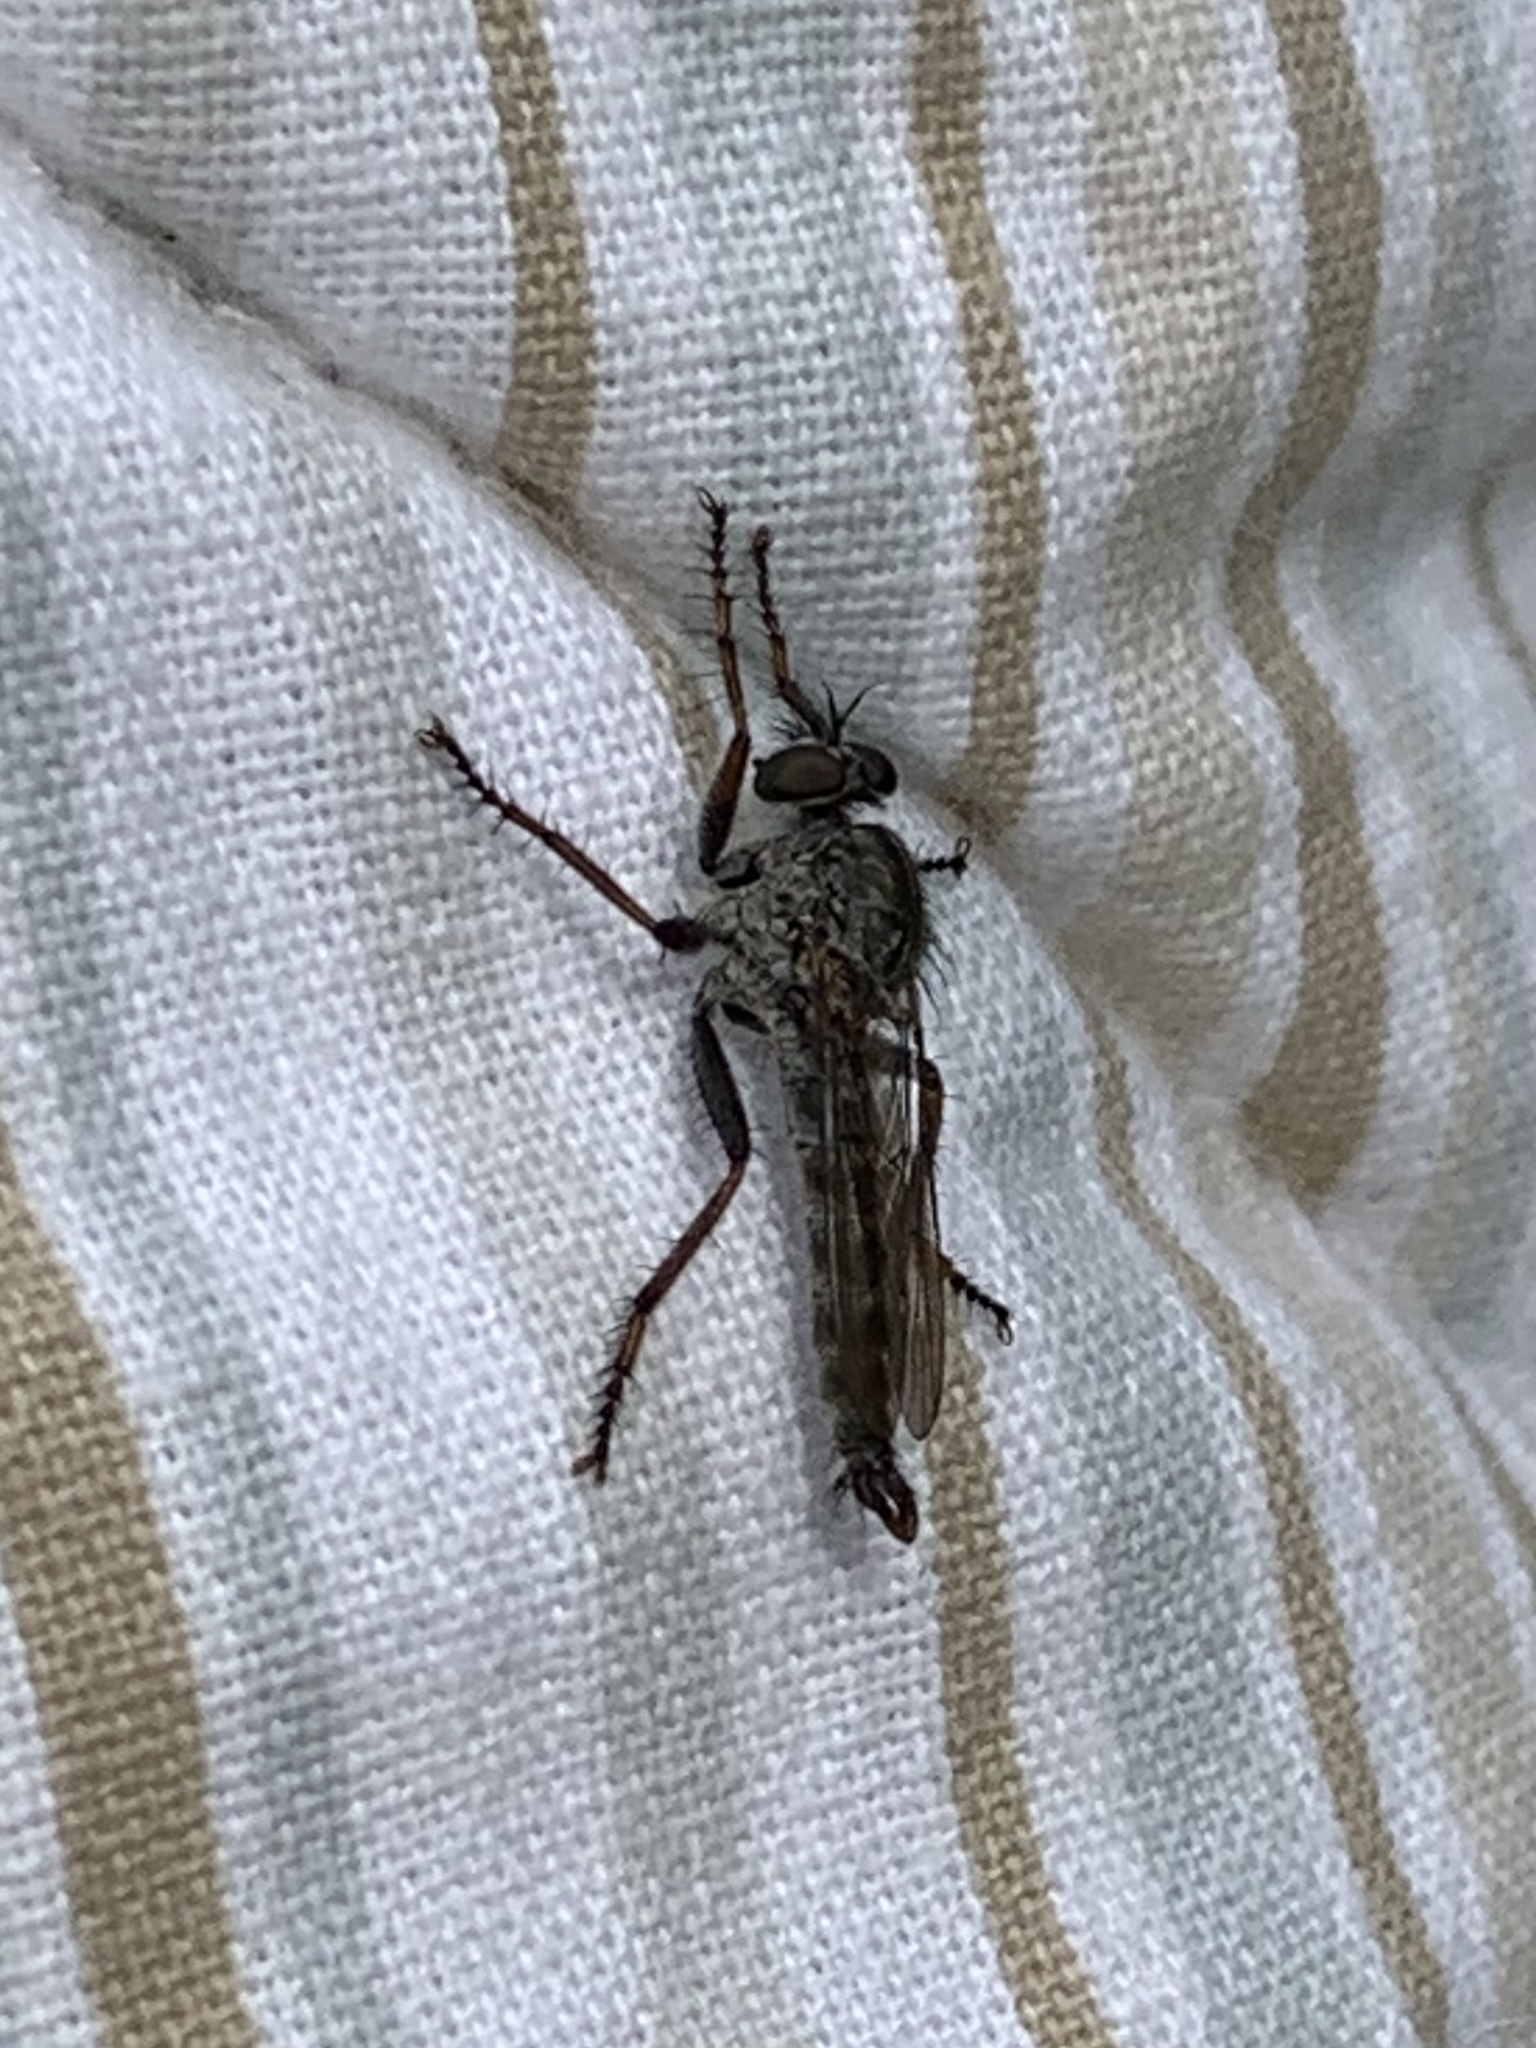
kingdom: Animalia
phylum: Arthropoda
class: Insecta
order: Diptera
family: Asilidae
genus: Machimus
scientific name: Machimus atricapillus
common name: Kite-tailed robberfly
